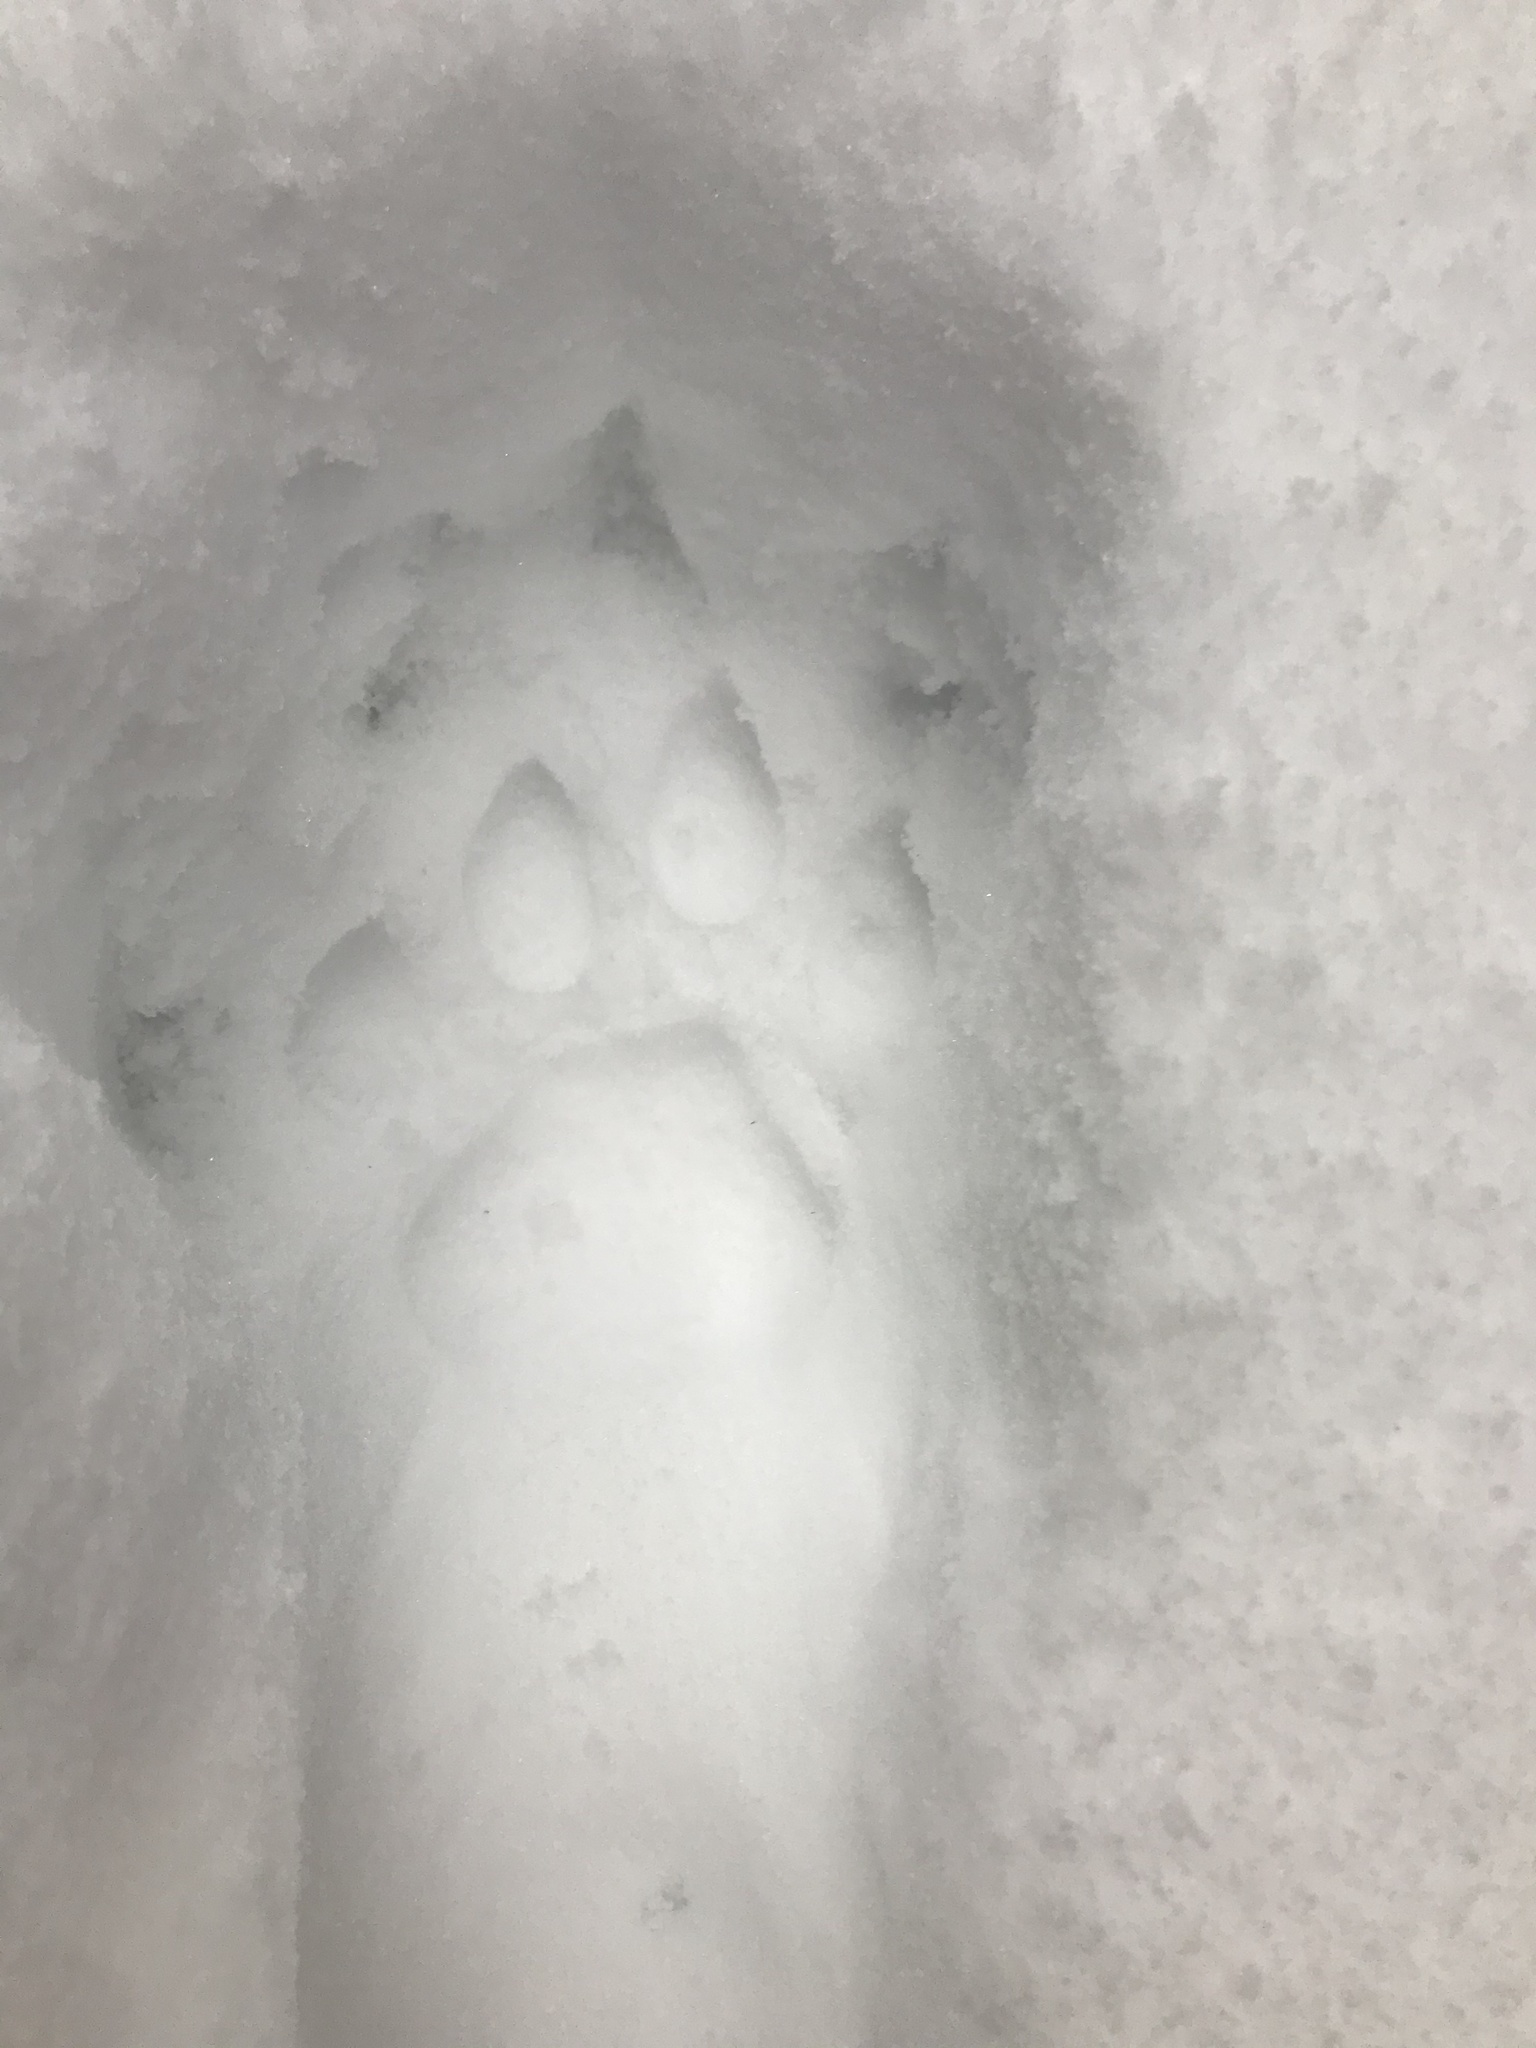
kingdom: Animalia
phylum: Chordata
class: Mammalia
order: Carnivora
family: Felidae
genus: Puma
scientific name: Puma concolor
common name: Puma
